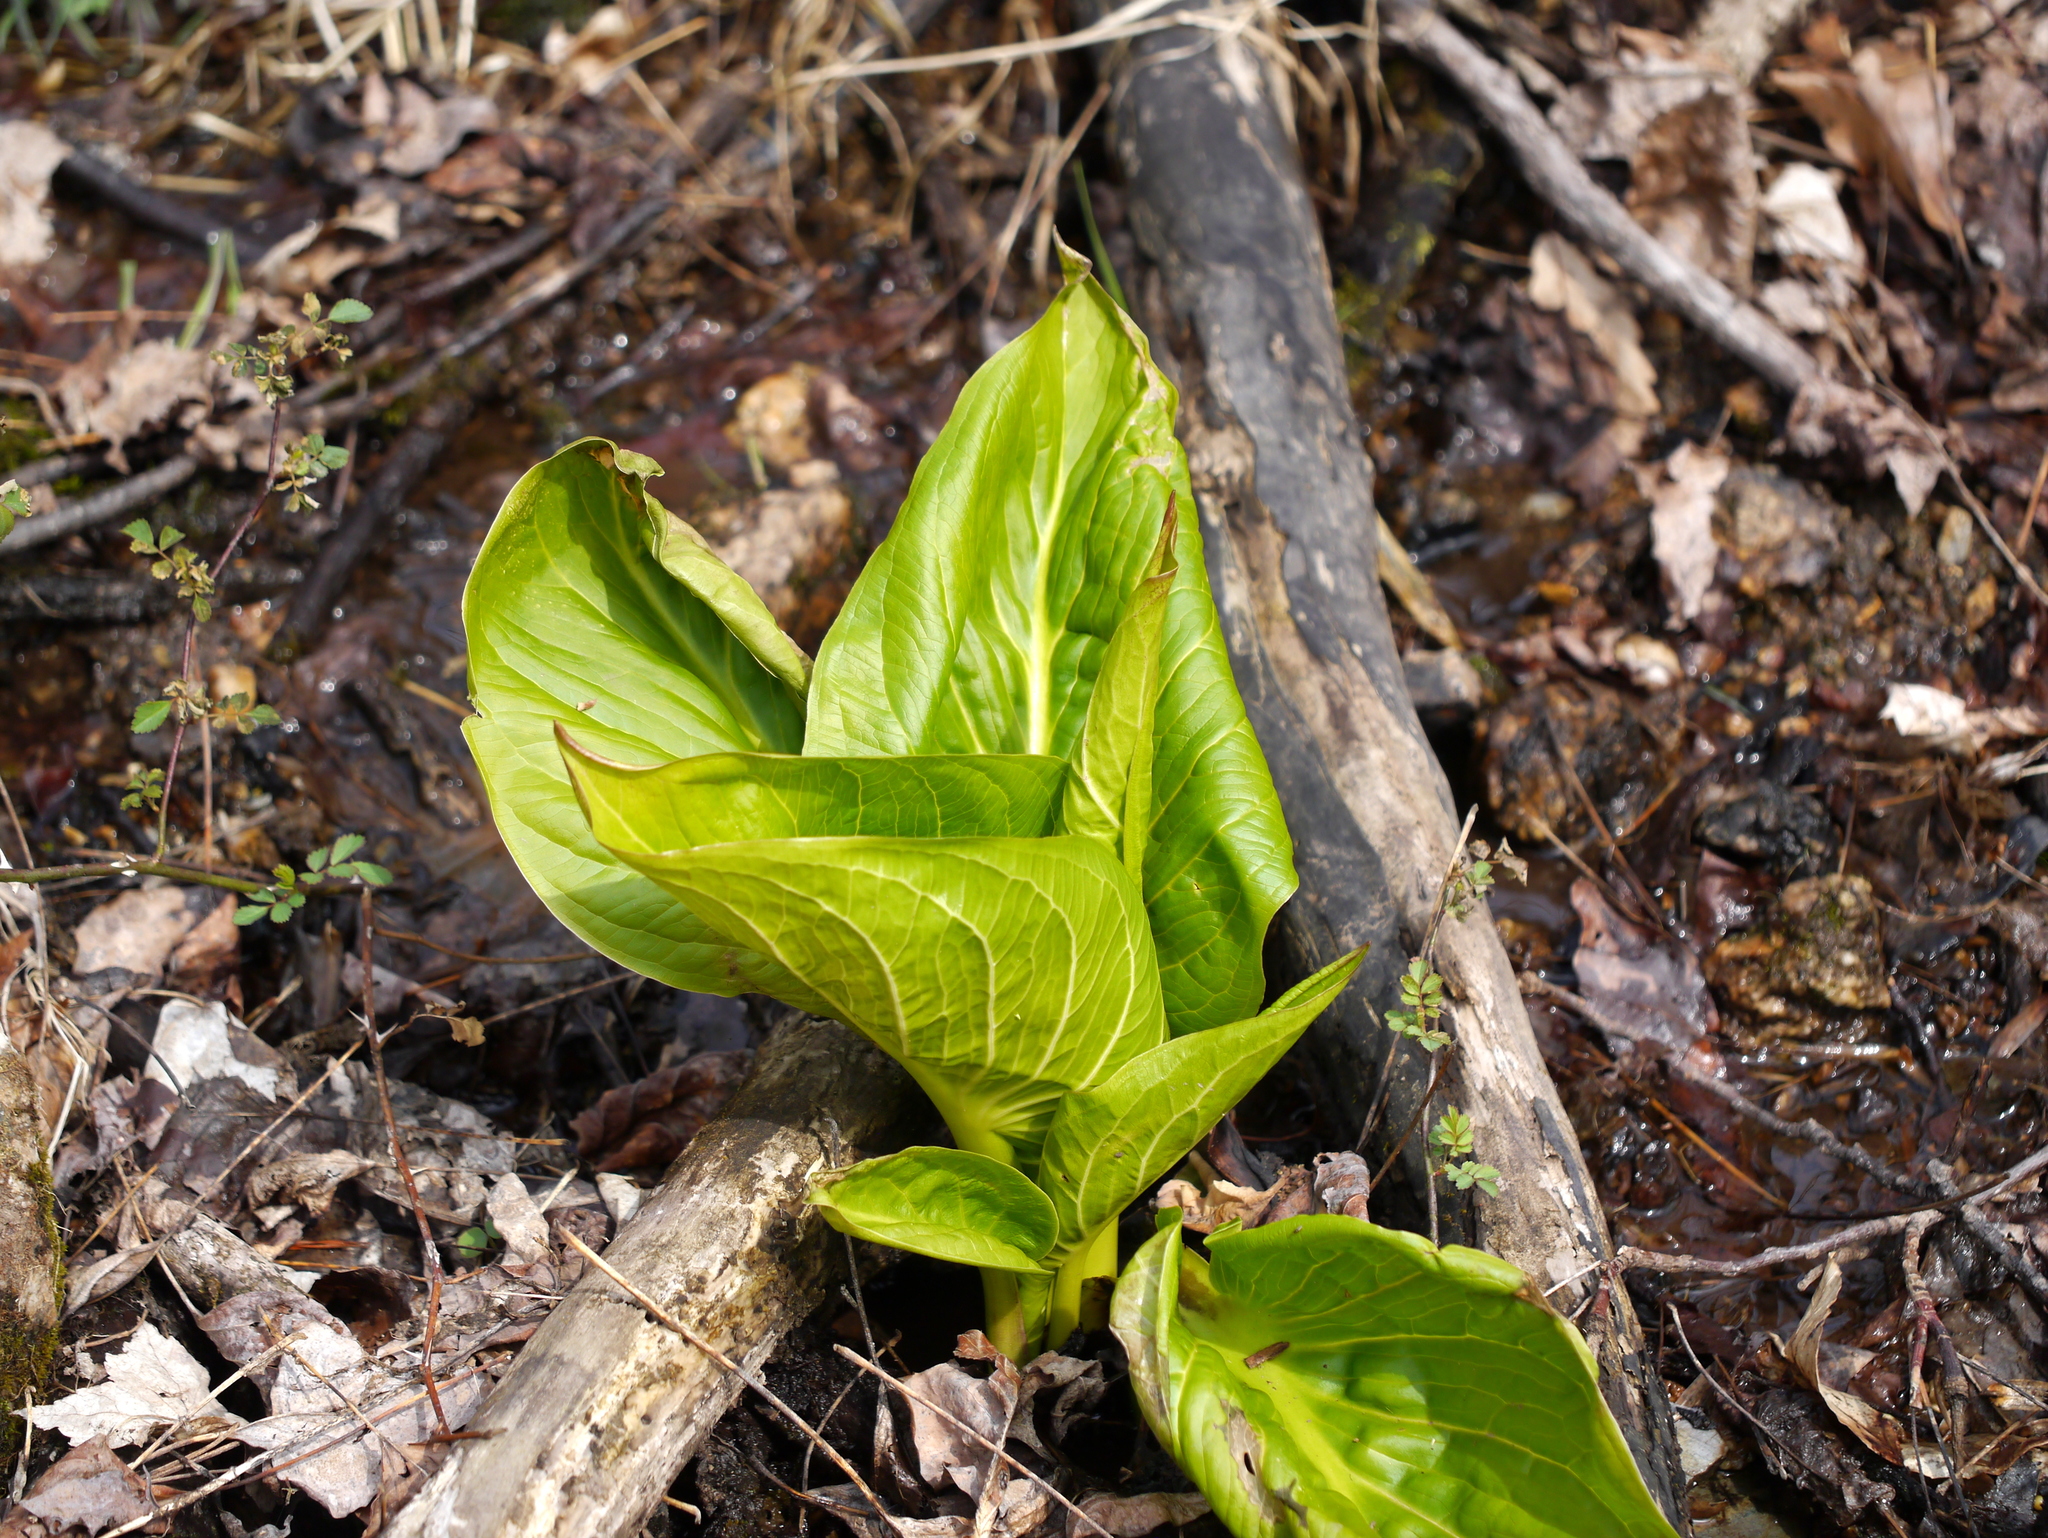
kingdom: Plantae
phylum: Tracheophyta
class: Liliopsida
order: Alismatales
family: Araceae
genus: Symplocarpus
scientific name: Symplocarpus foetidus
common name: Eastern skunk cabbage
